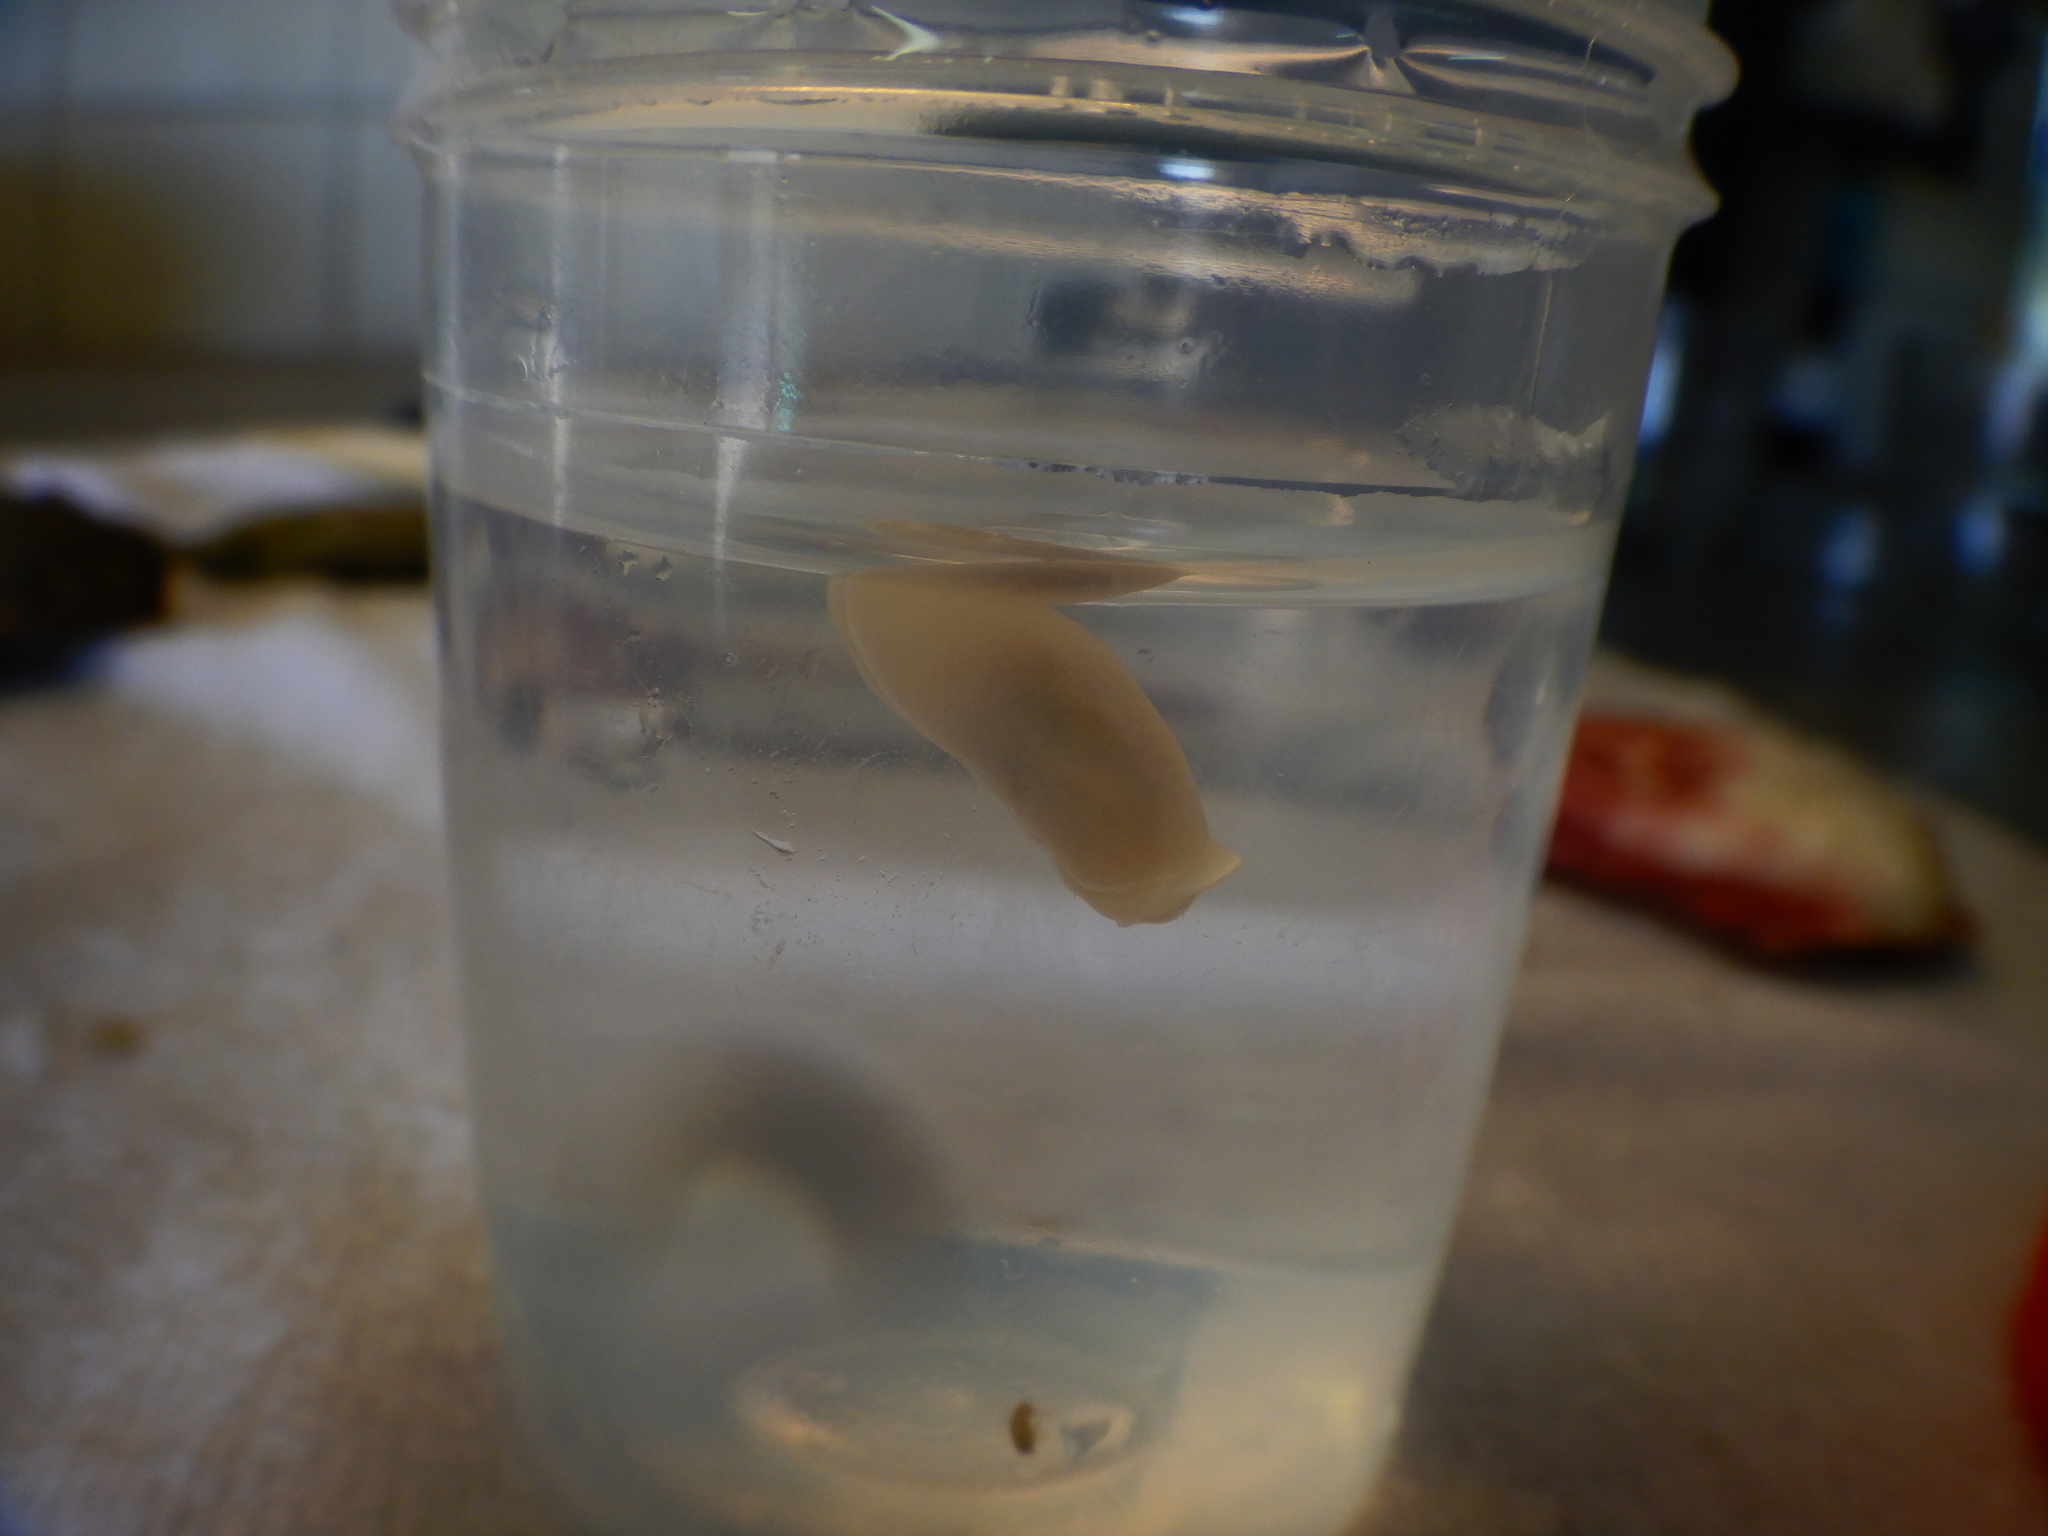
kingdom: Animalia
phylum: Mollusca
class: Gastropoda
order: Cephalaspidea
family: Aglajidae
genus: Melanochlamys
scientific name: Melanochlamys miqueli
